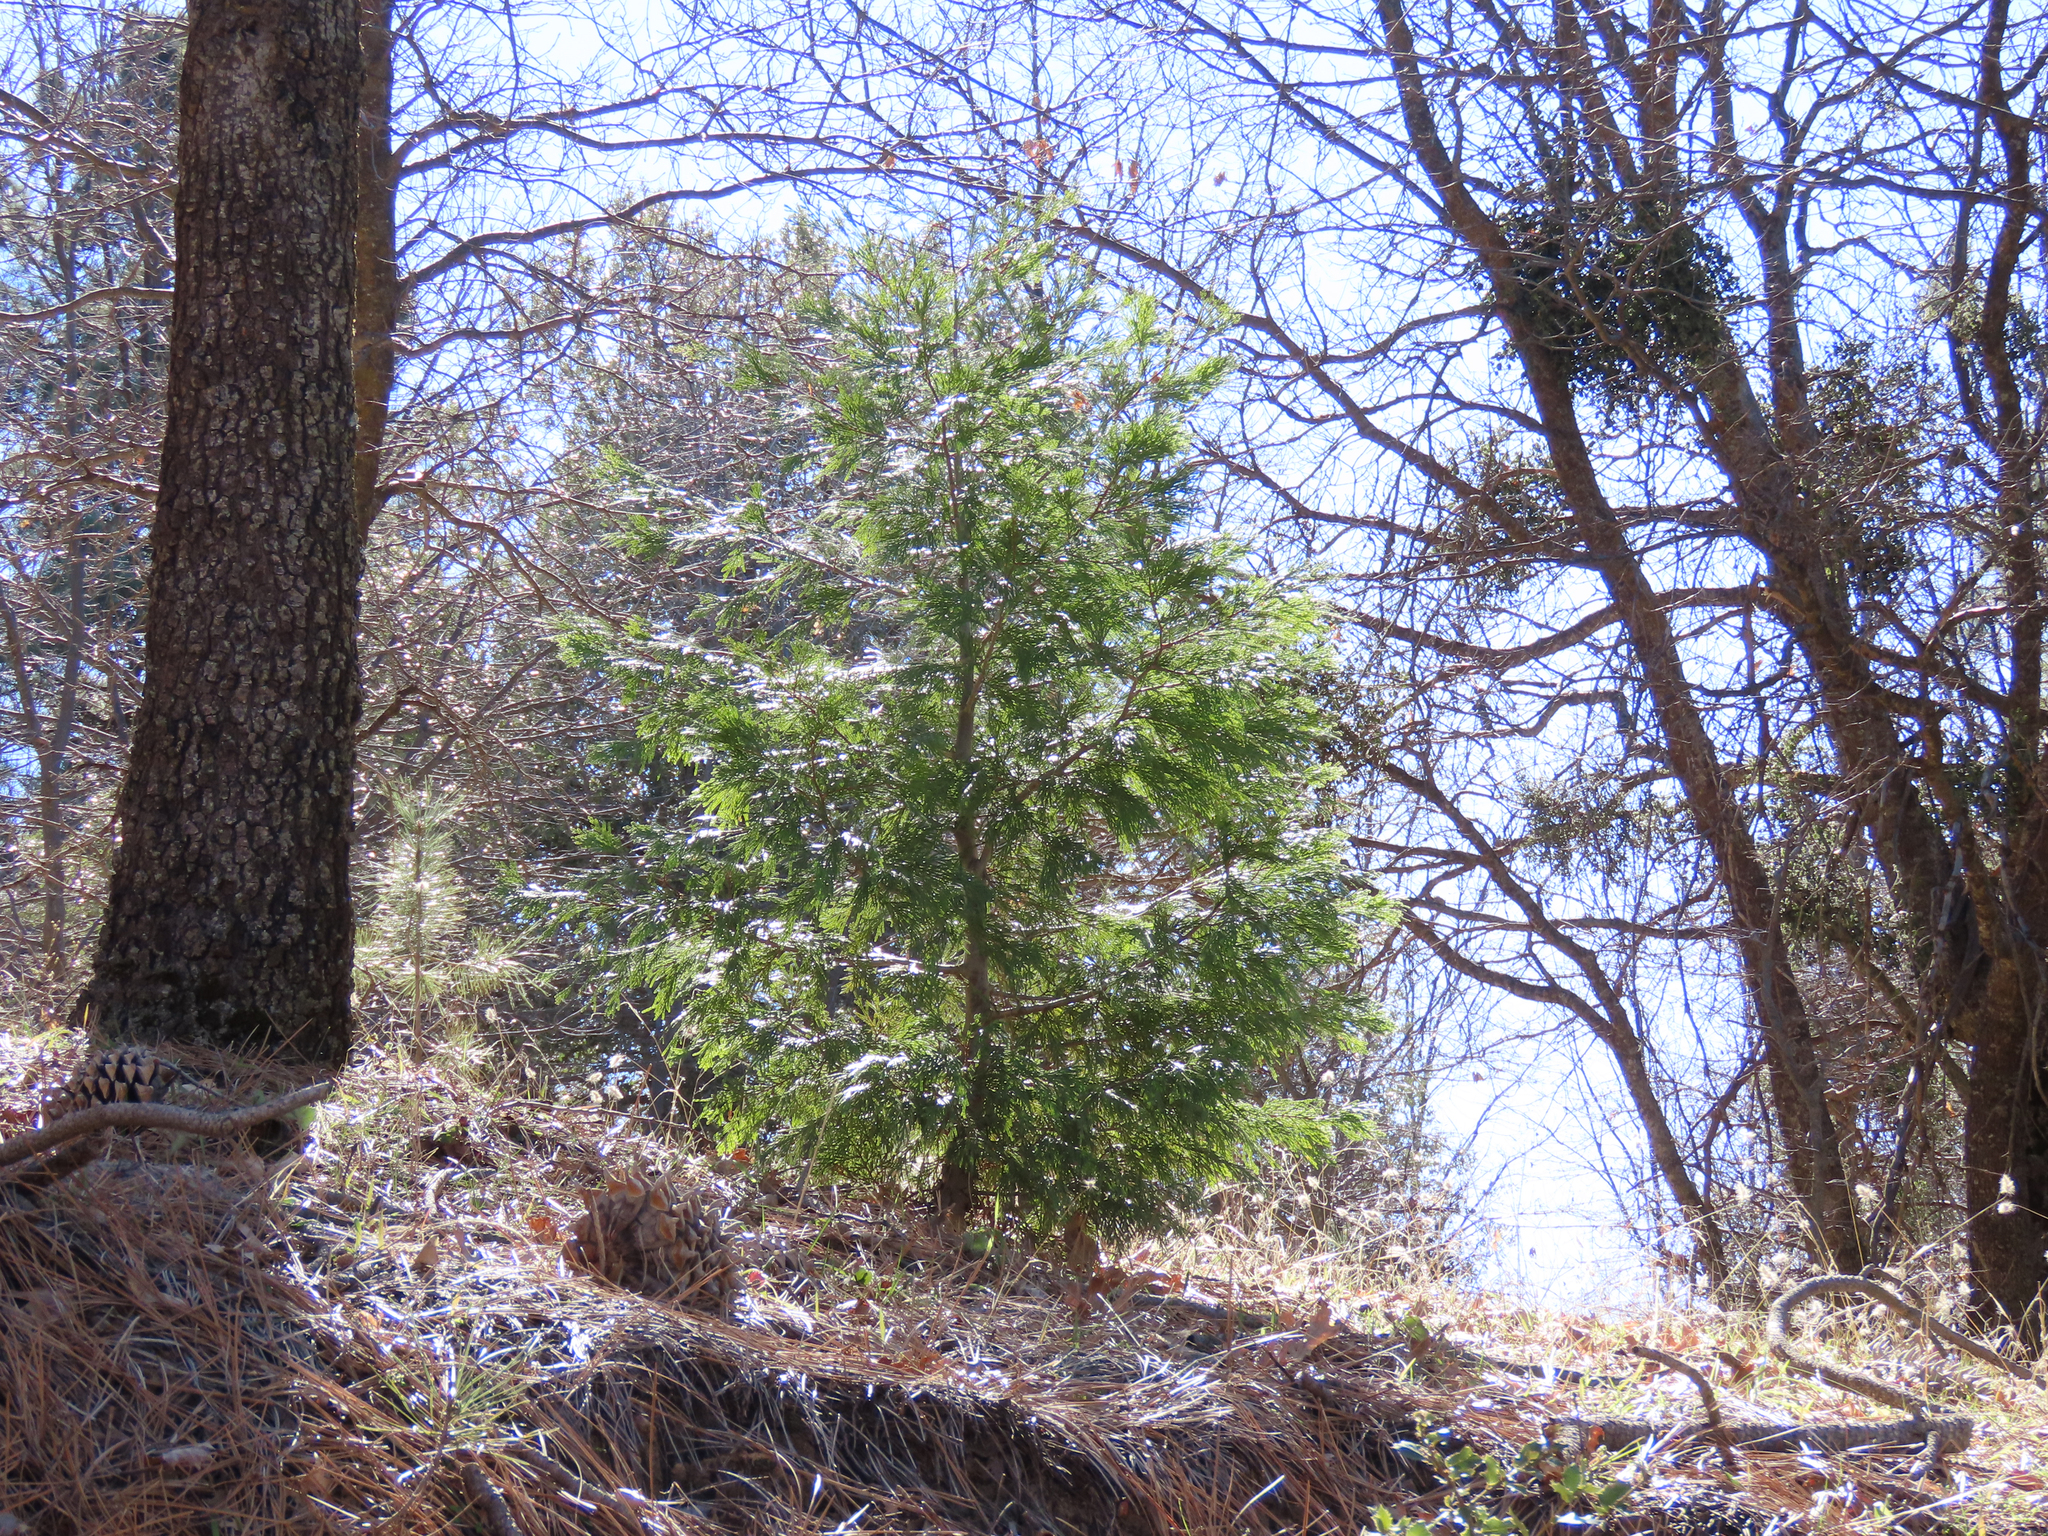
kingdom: Plantae
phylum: Tracheophyta
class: Pinopsida
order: Pinales
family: Cupressaceae
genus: Calocedrus
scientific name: Calocedrus decurrens
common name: Californian incense-cedar
